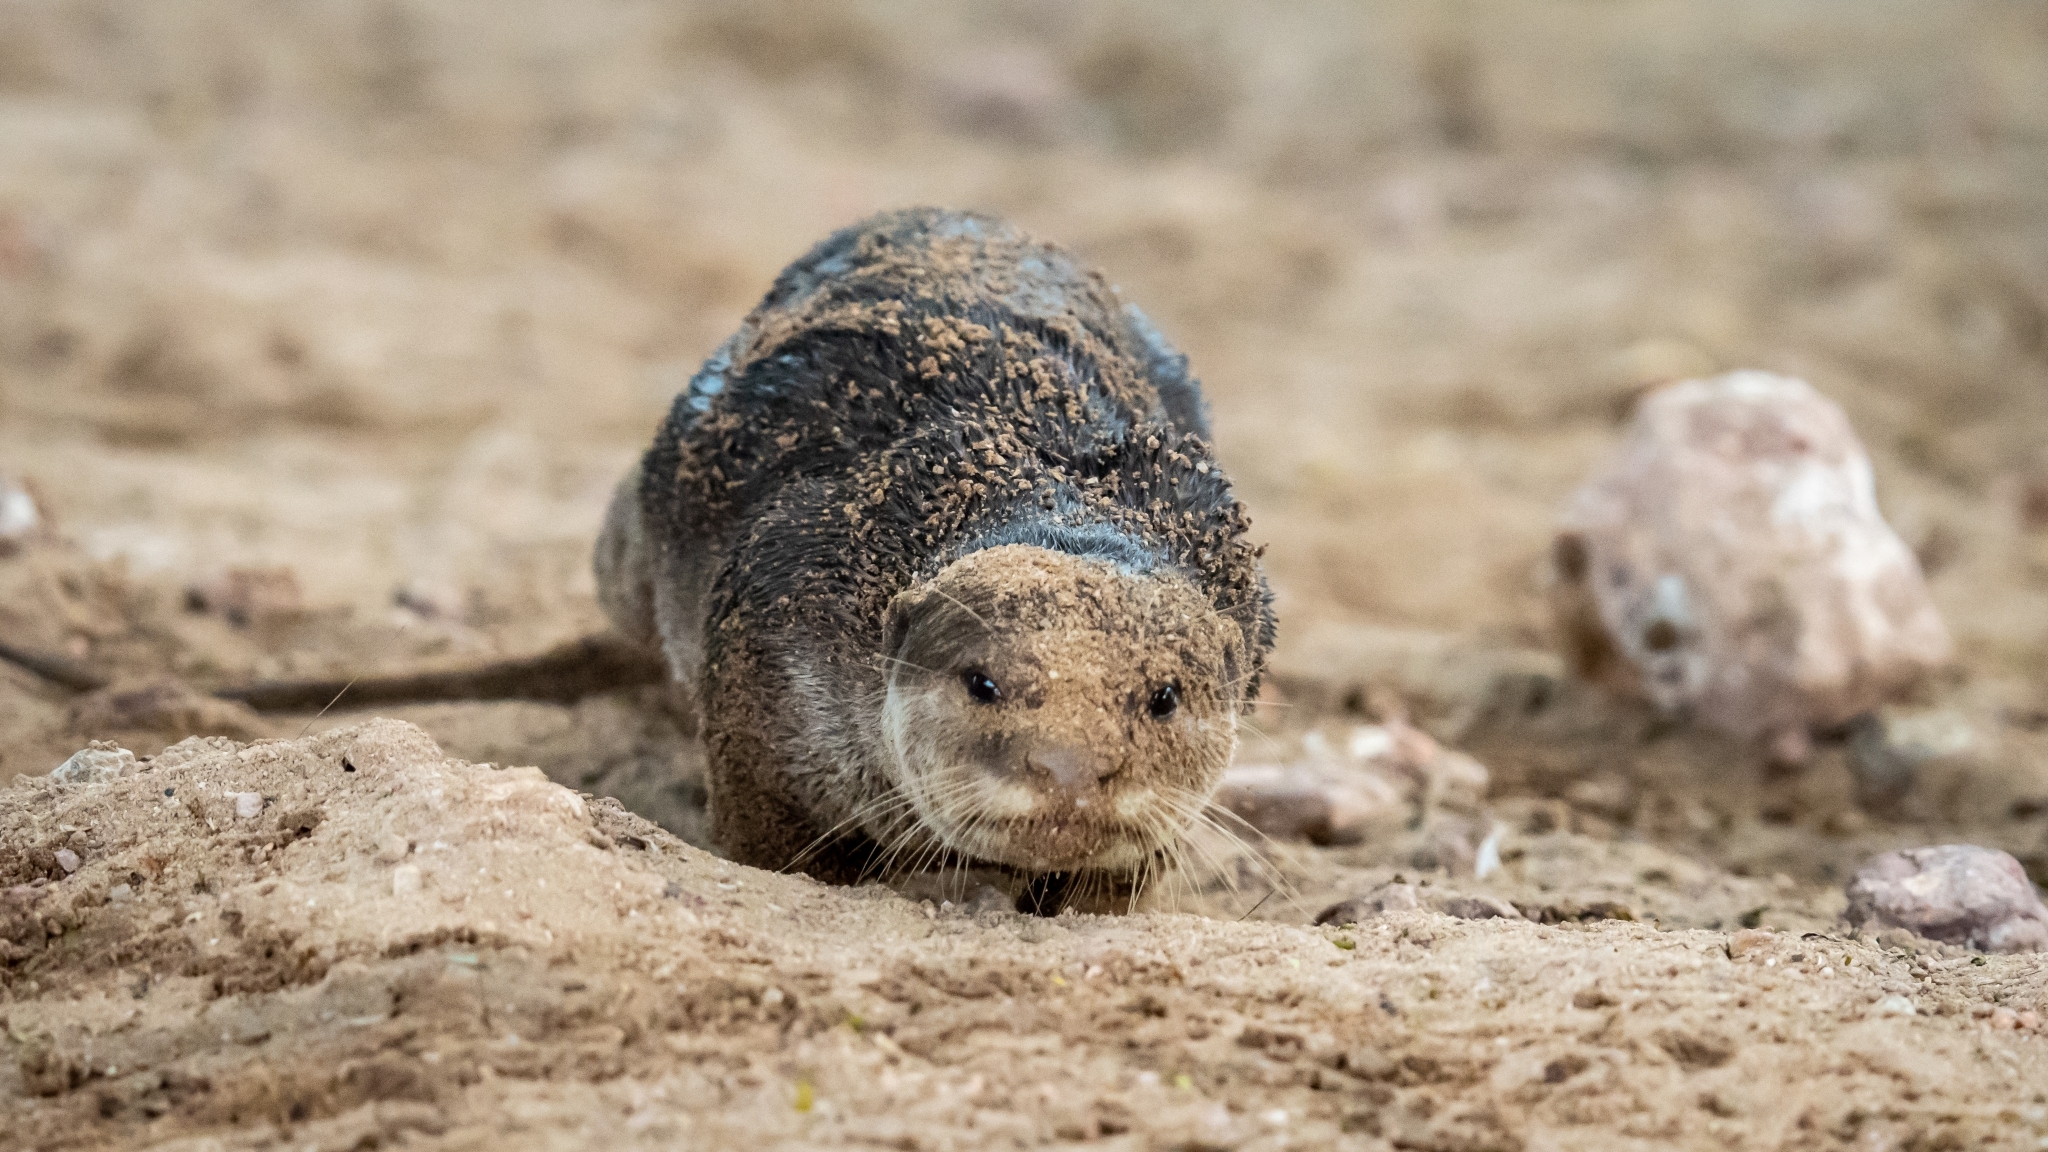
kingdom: Animalia
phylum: Chordata
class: Mammalia
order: Carnivora
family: Mustelidae
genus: Lutrogale
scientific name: Lutrogale perspicillata
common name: Smooth-coated otter
